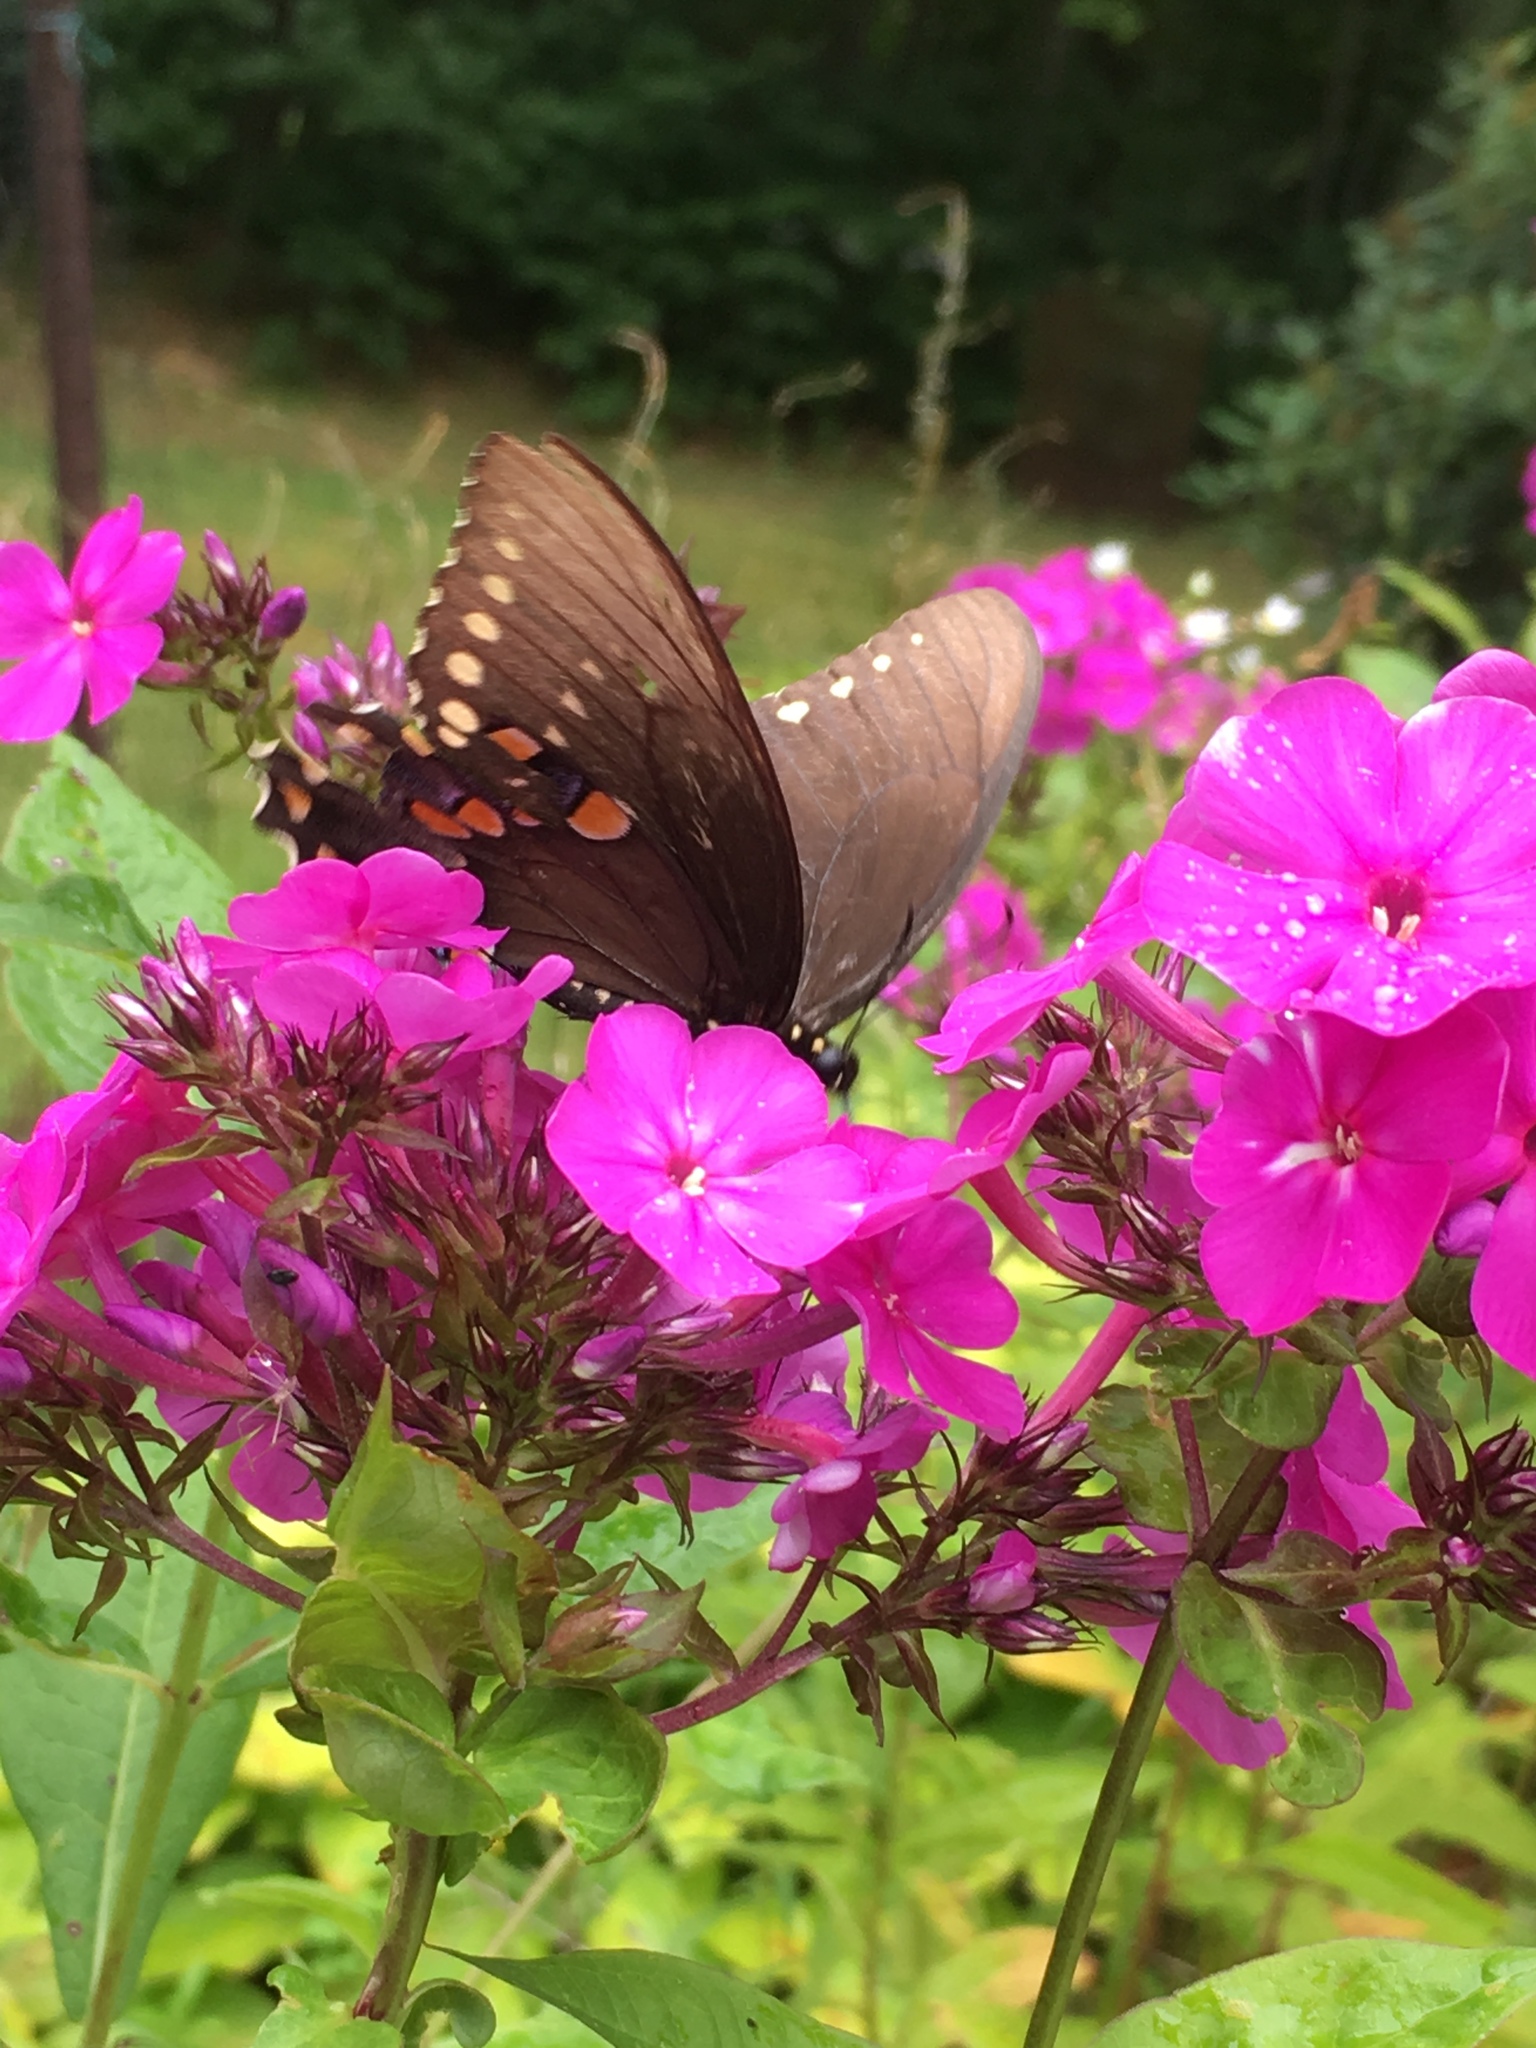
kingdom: Animalia
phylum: Arthropoda
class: Insecta
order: Lepidoptera
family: Papilionidae
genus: Papilio
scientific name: Papilio troilus
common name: Spicebush swallowtail
